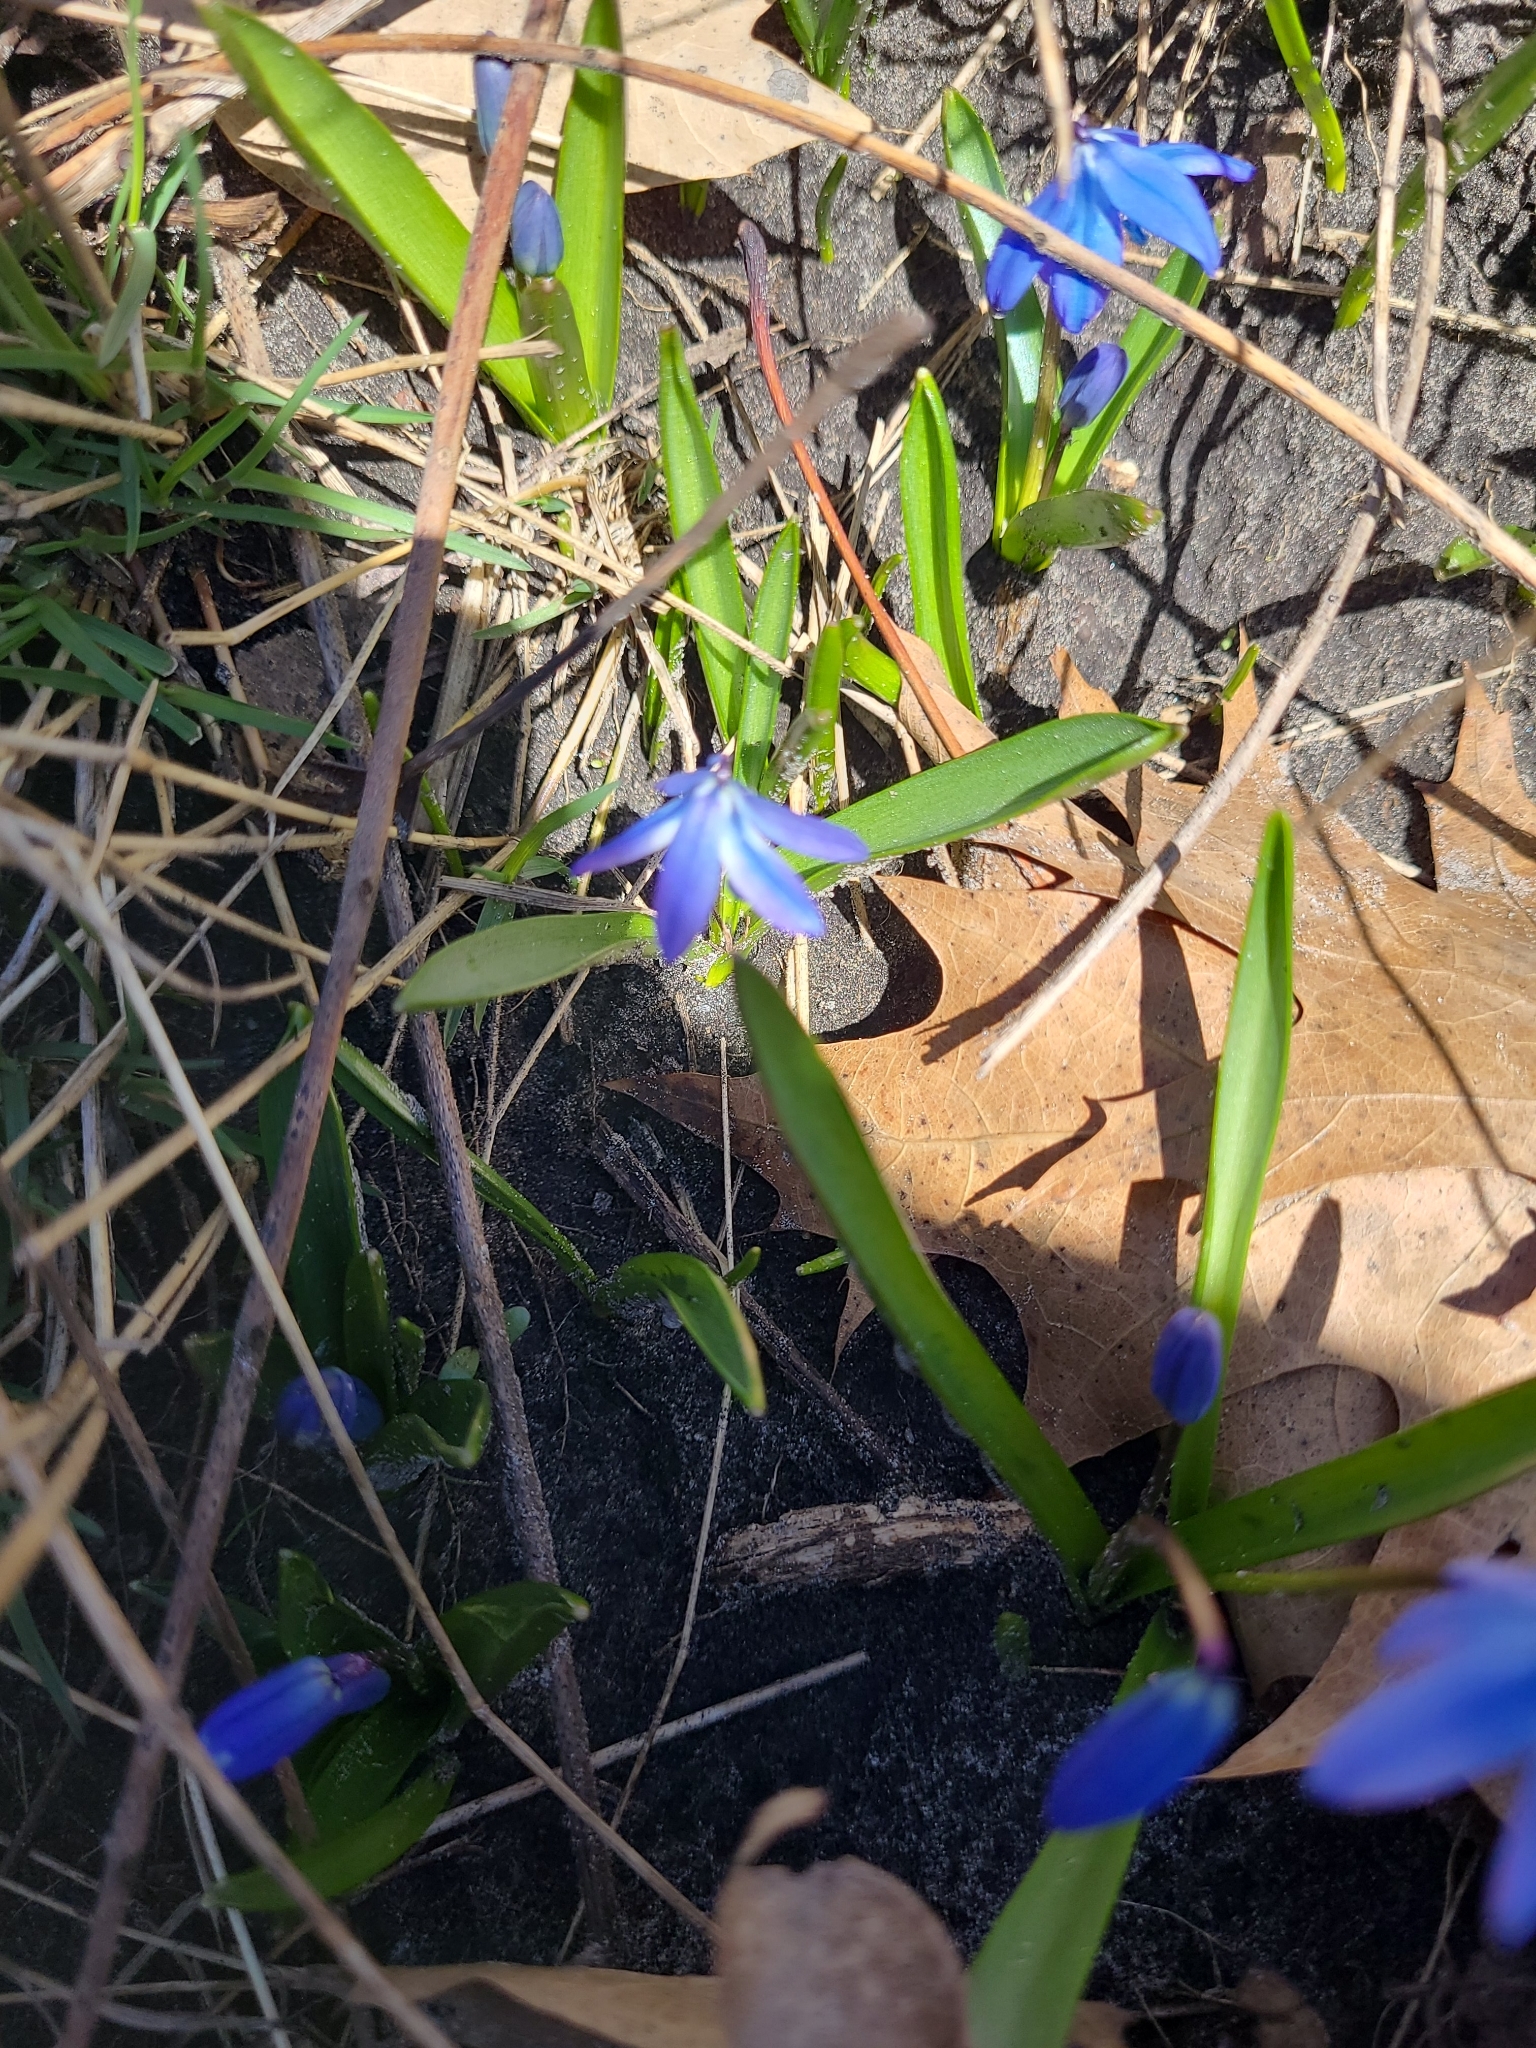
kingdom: Plantae
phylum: Tracheophyta
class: Liliopsida
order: Asparagales
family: Asparagaceae
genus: Scilla
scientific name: Scilla siberica
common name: Siberian squill
